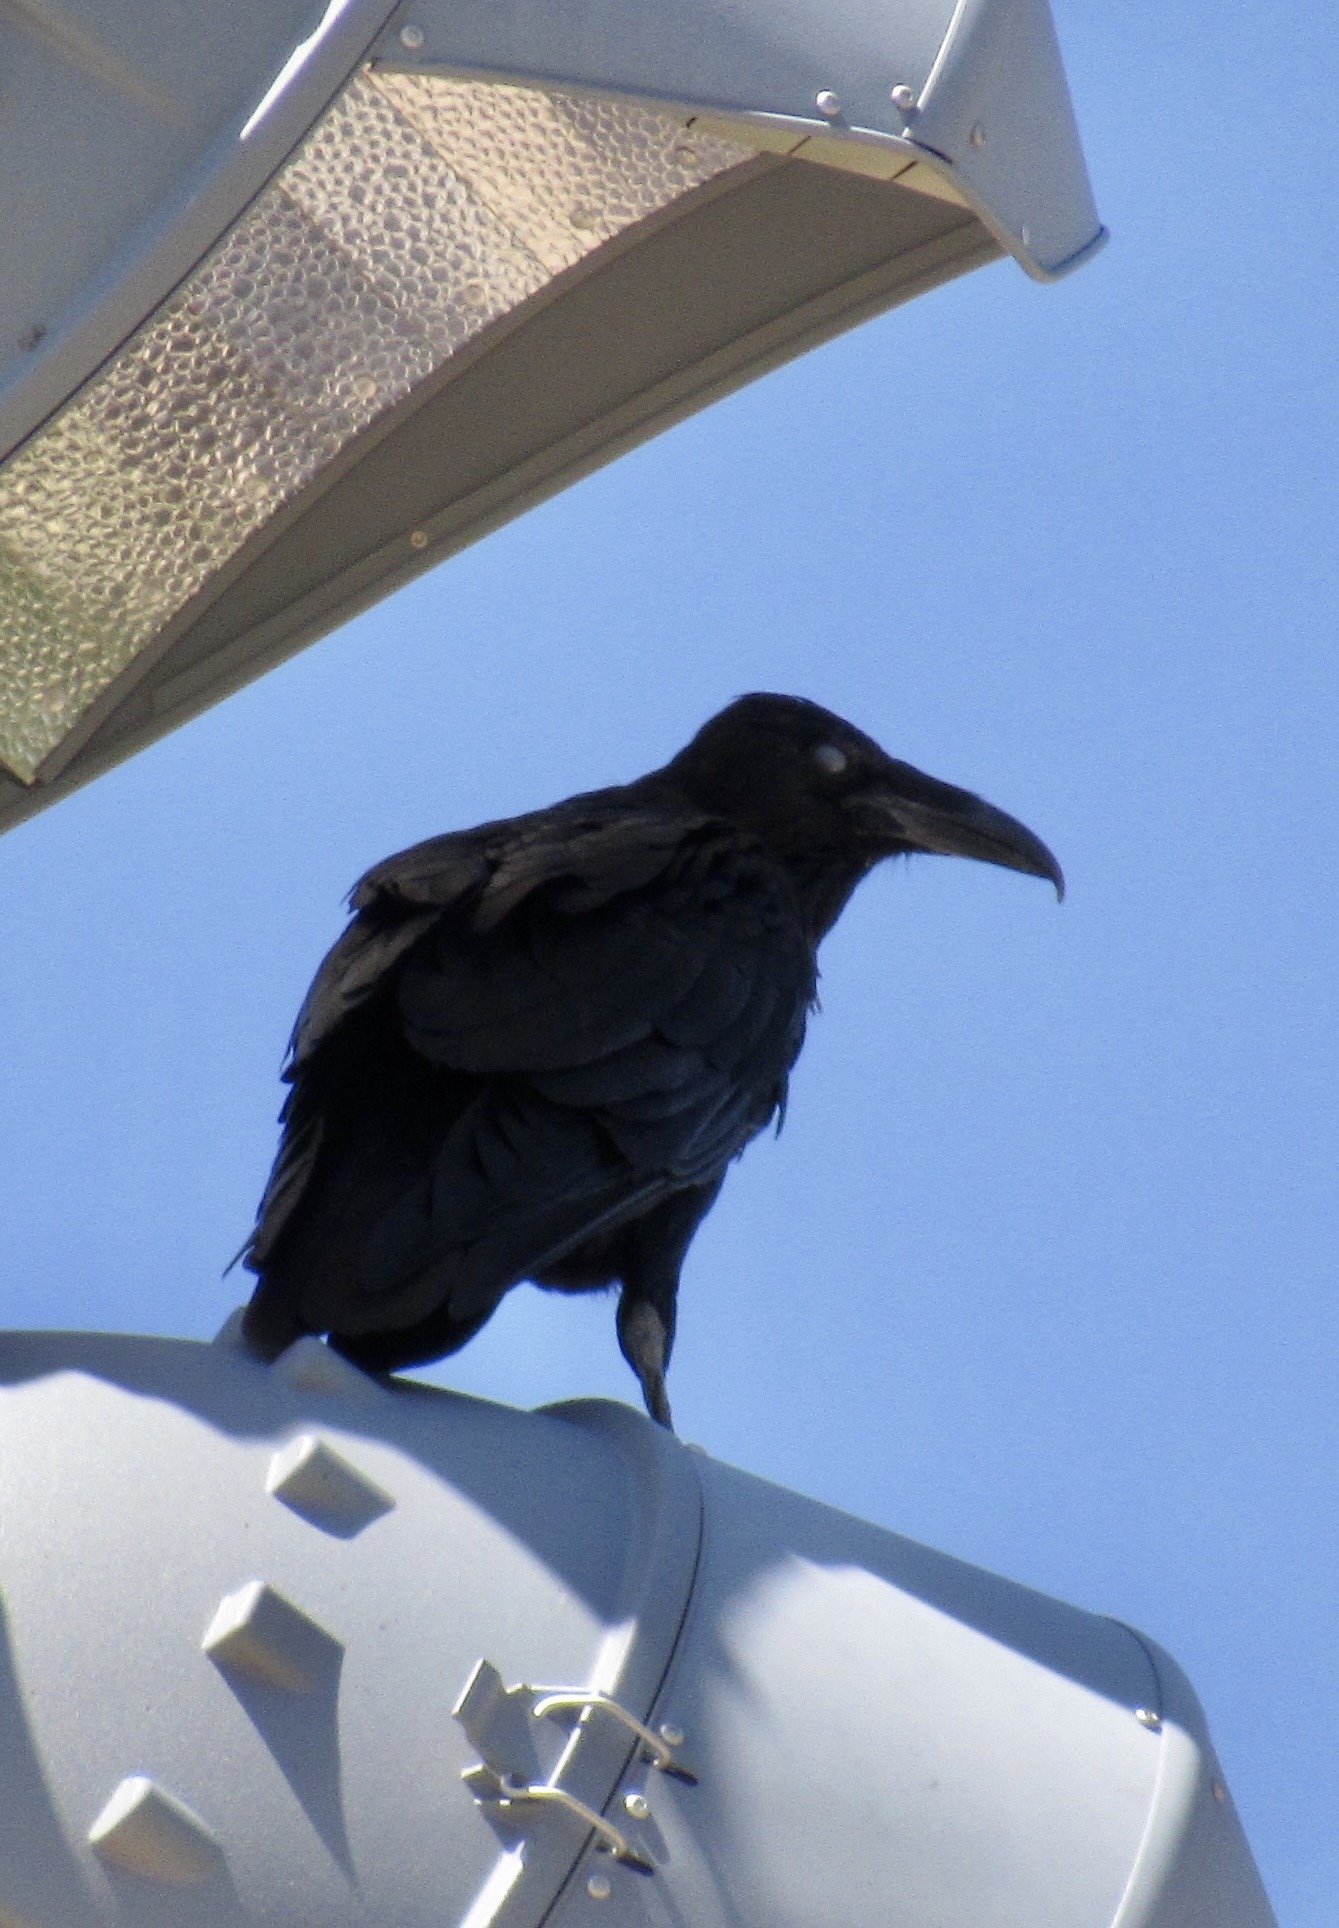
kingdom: Animalia
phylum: Chordata
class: Aves
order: Passeriformes
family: Corvidae
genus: Corvus
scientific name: Corvus corax
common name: Common raven
